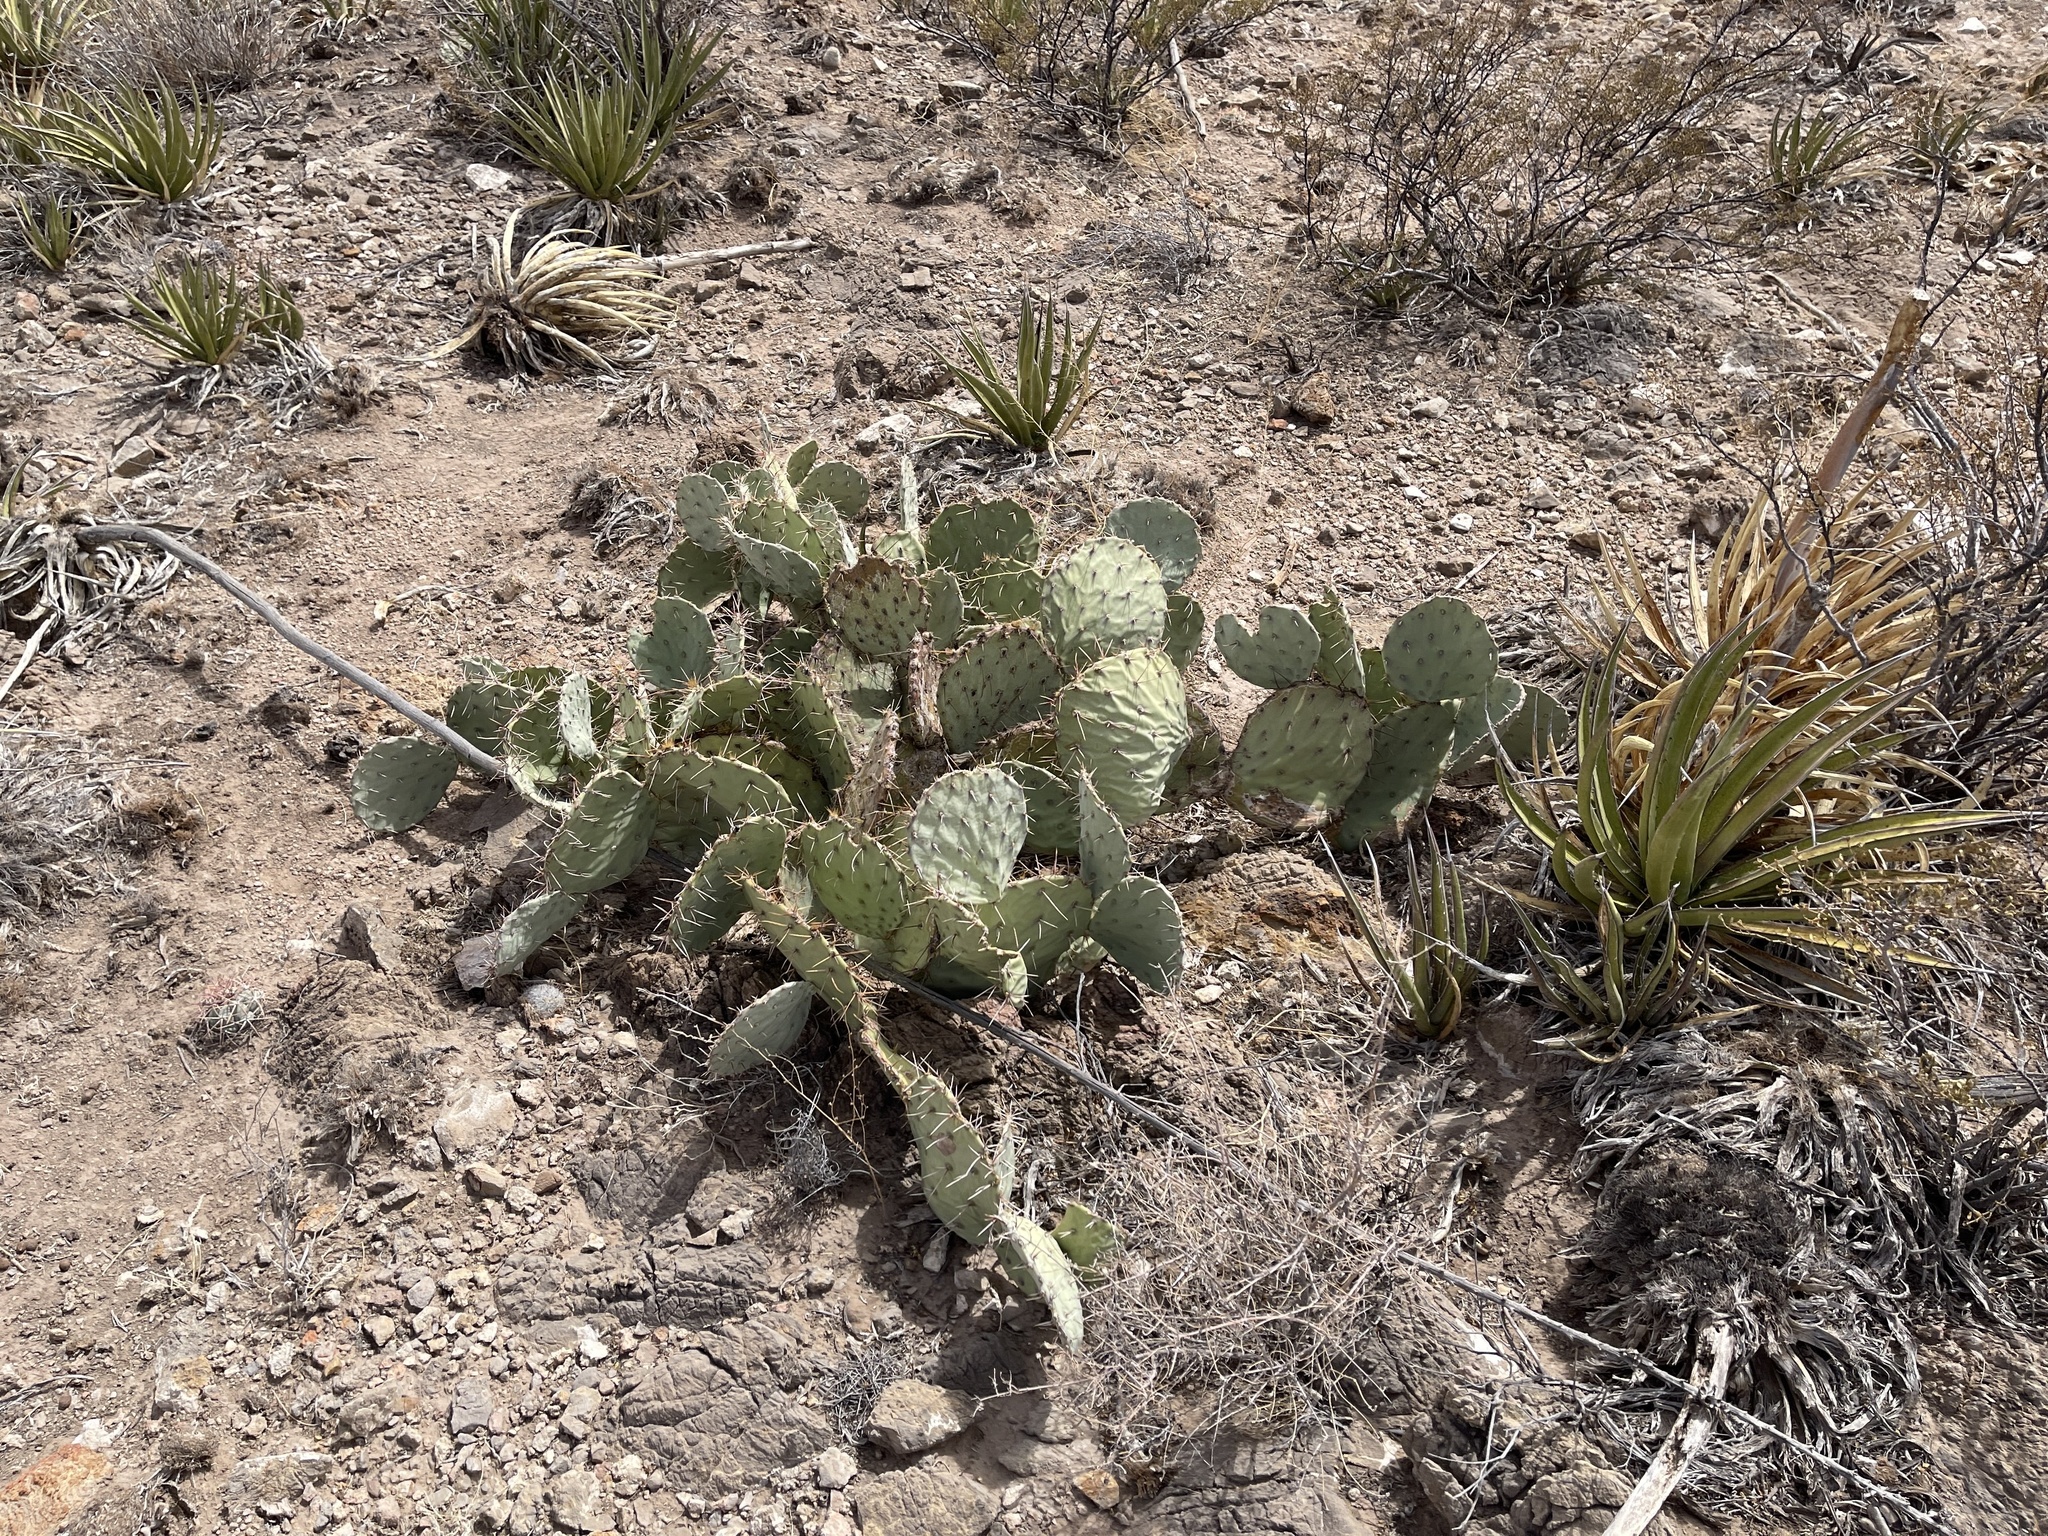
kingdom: Plantae
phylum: Tracheophyta
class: Magnoliopsida
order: Caryophyllales
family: Cactaceae
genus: Opuntia
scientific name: Opuntia engelmannii
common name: Cactus-apple
